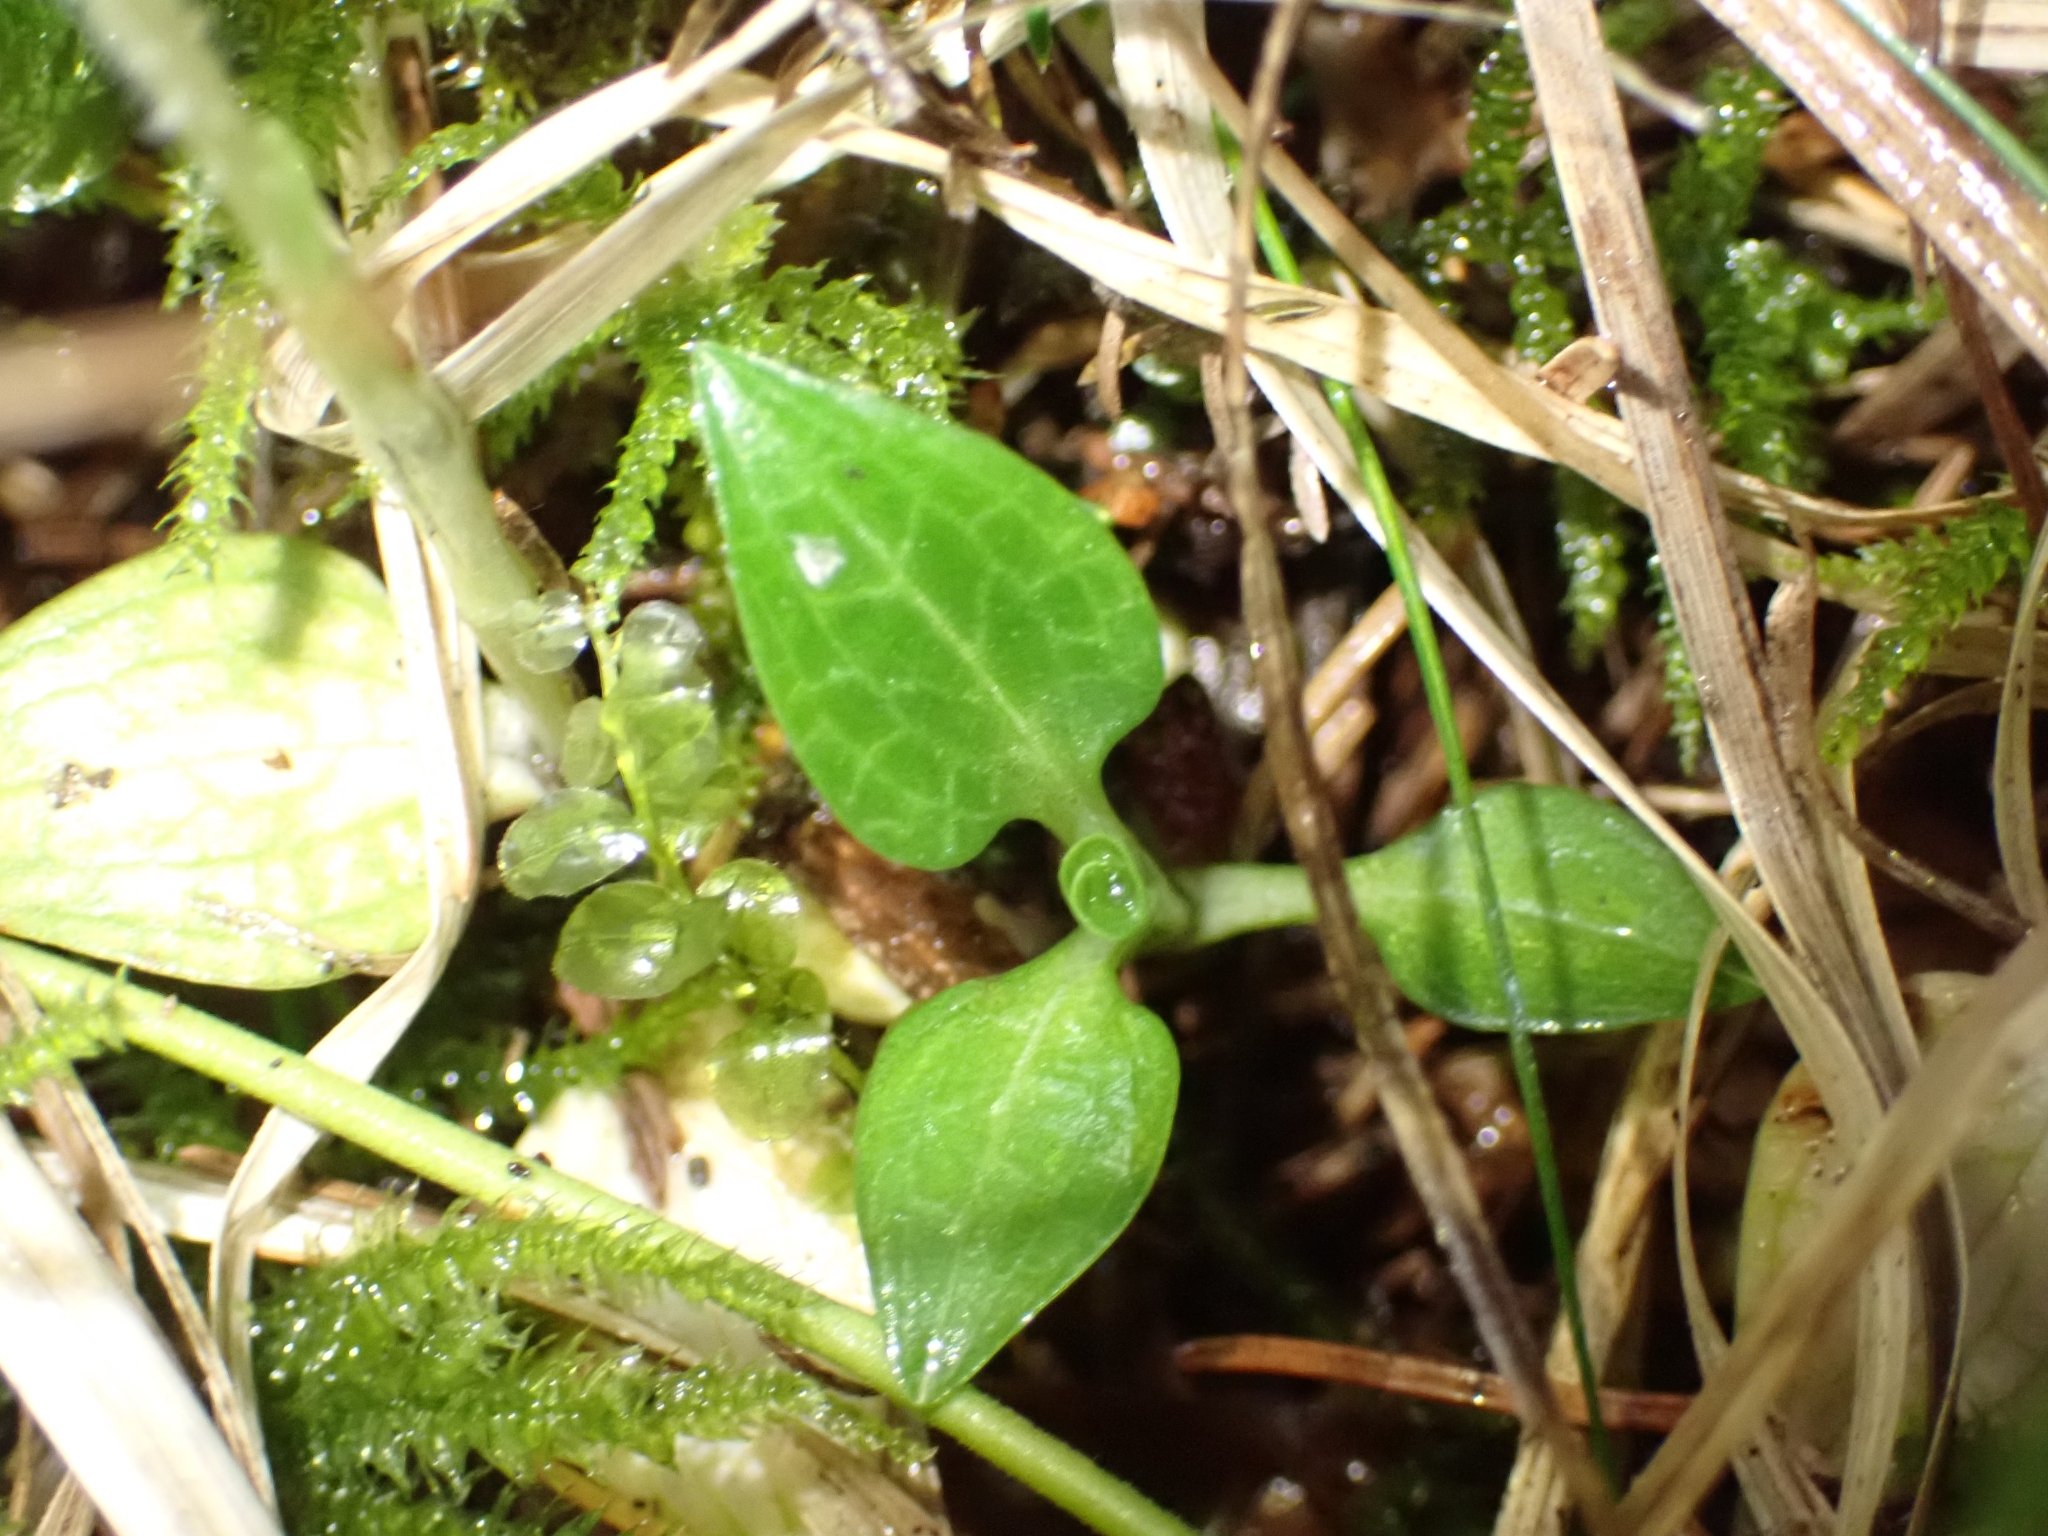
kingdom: Plantae
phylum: Tracheophyta
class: Liliopsida
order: Asparagales
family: Orchidaceae
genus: Goodyera
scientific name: Goodyera repens
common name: Creeping lady's-tresses
